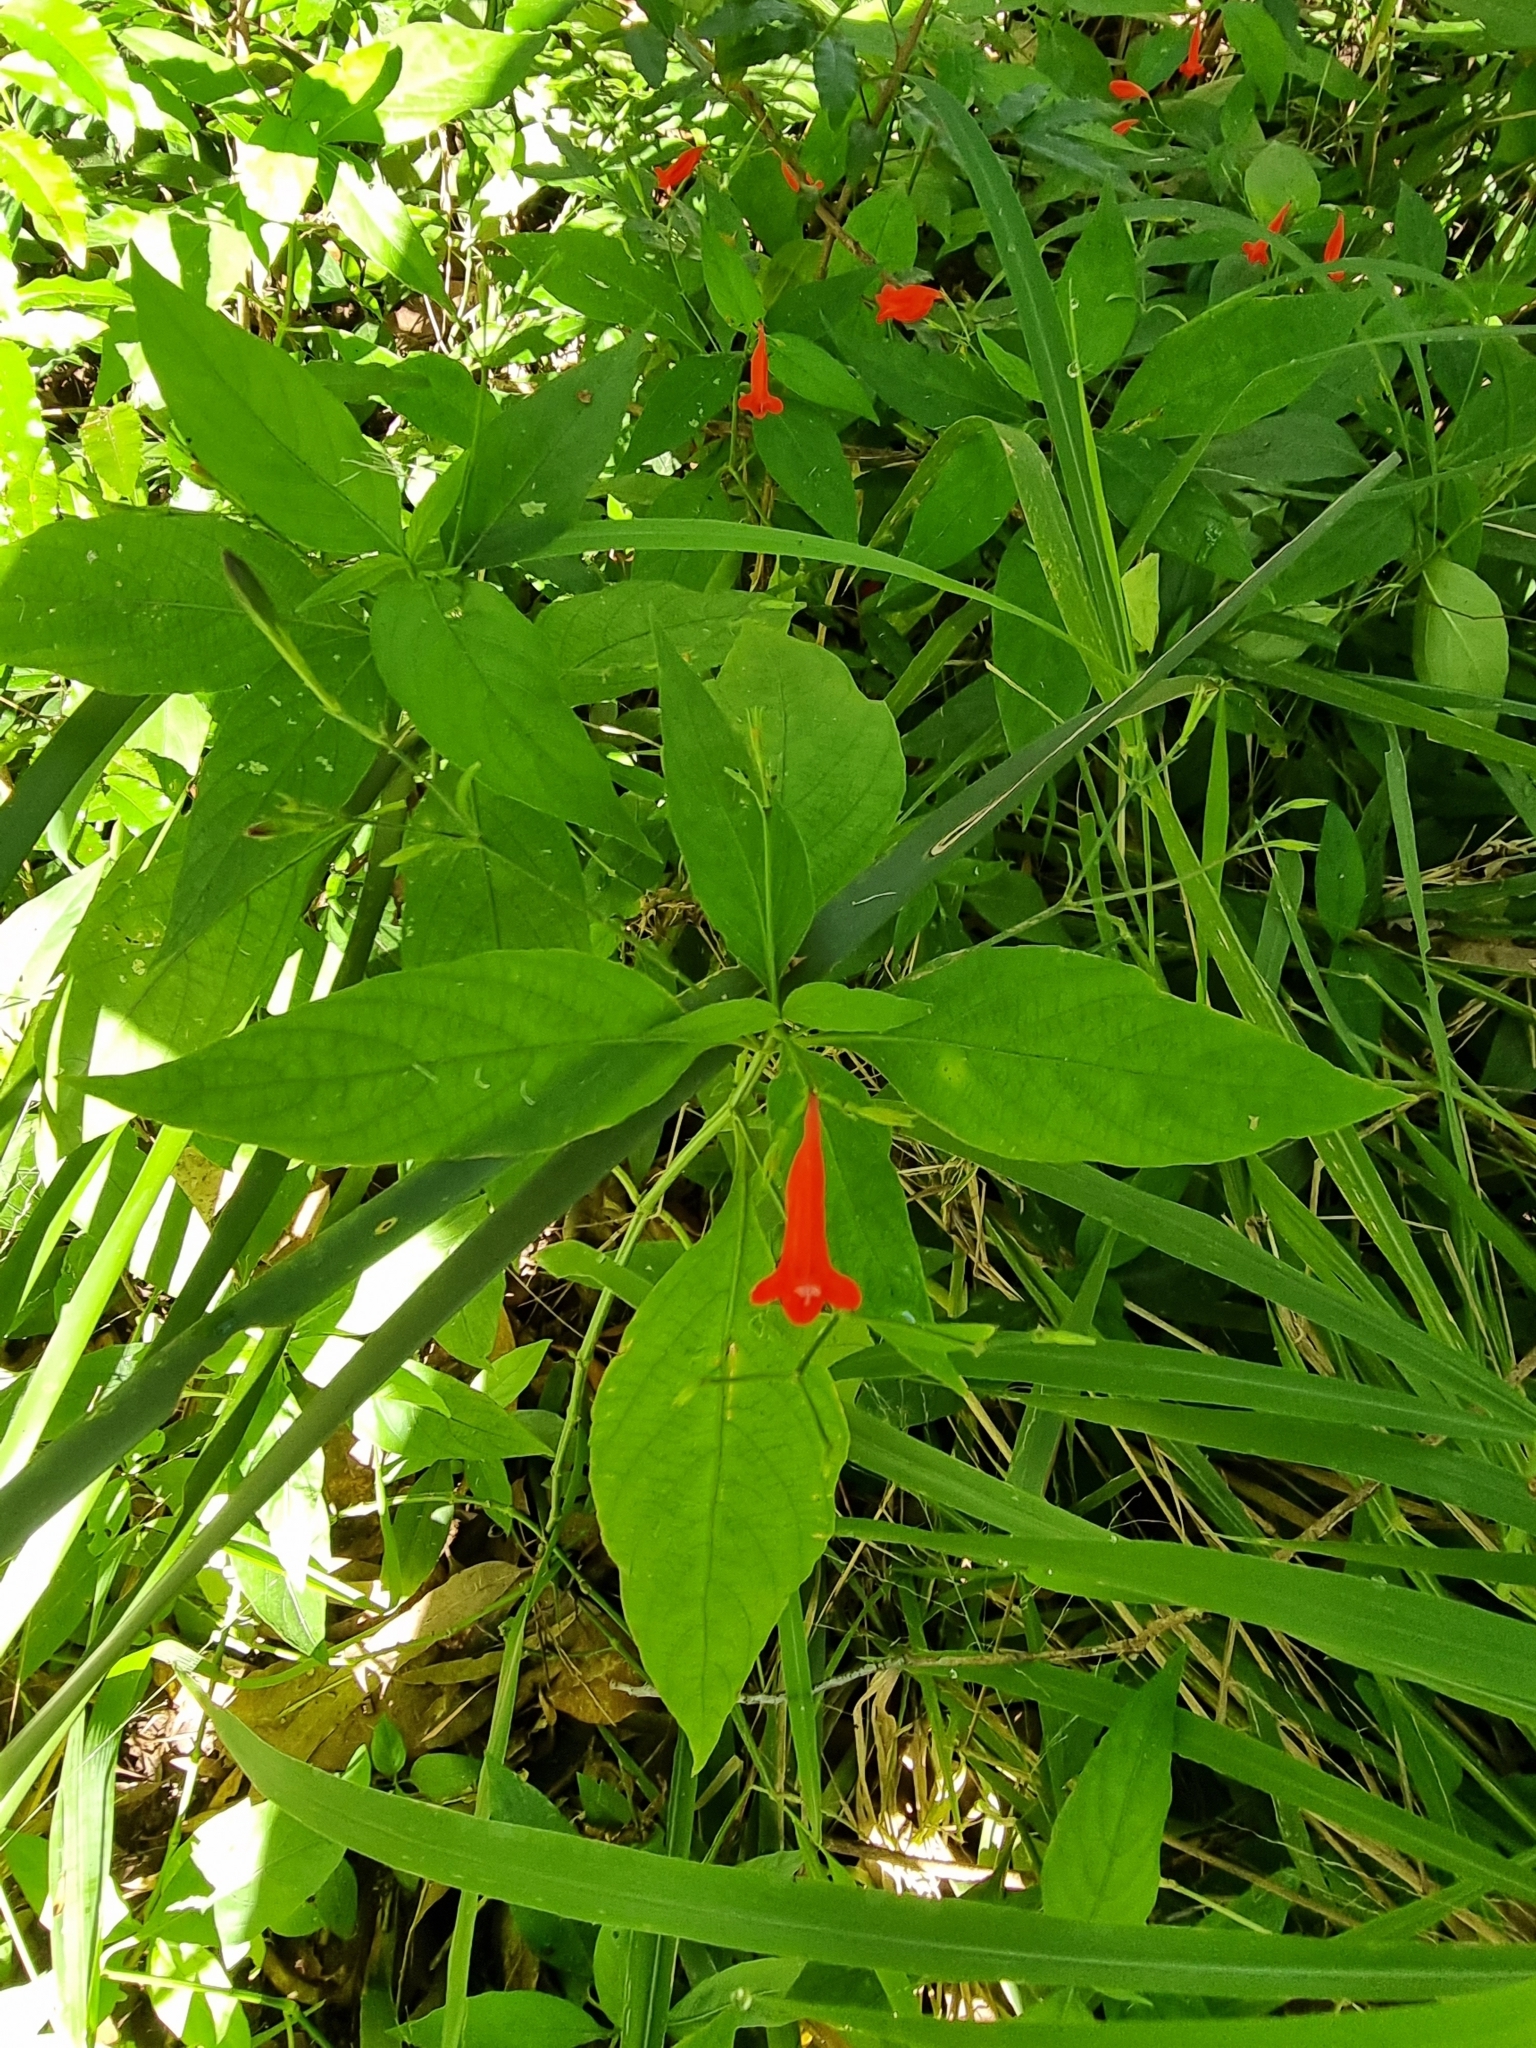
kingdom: Plantae
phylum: Tracheophyta
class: Magnoliopsida
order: Lamiales
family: Acanthaceae
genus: Ruellia
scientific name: Ruellia brevifolia
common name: Tropical wild petunia
